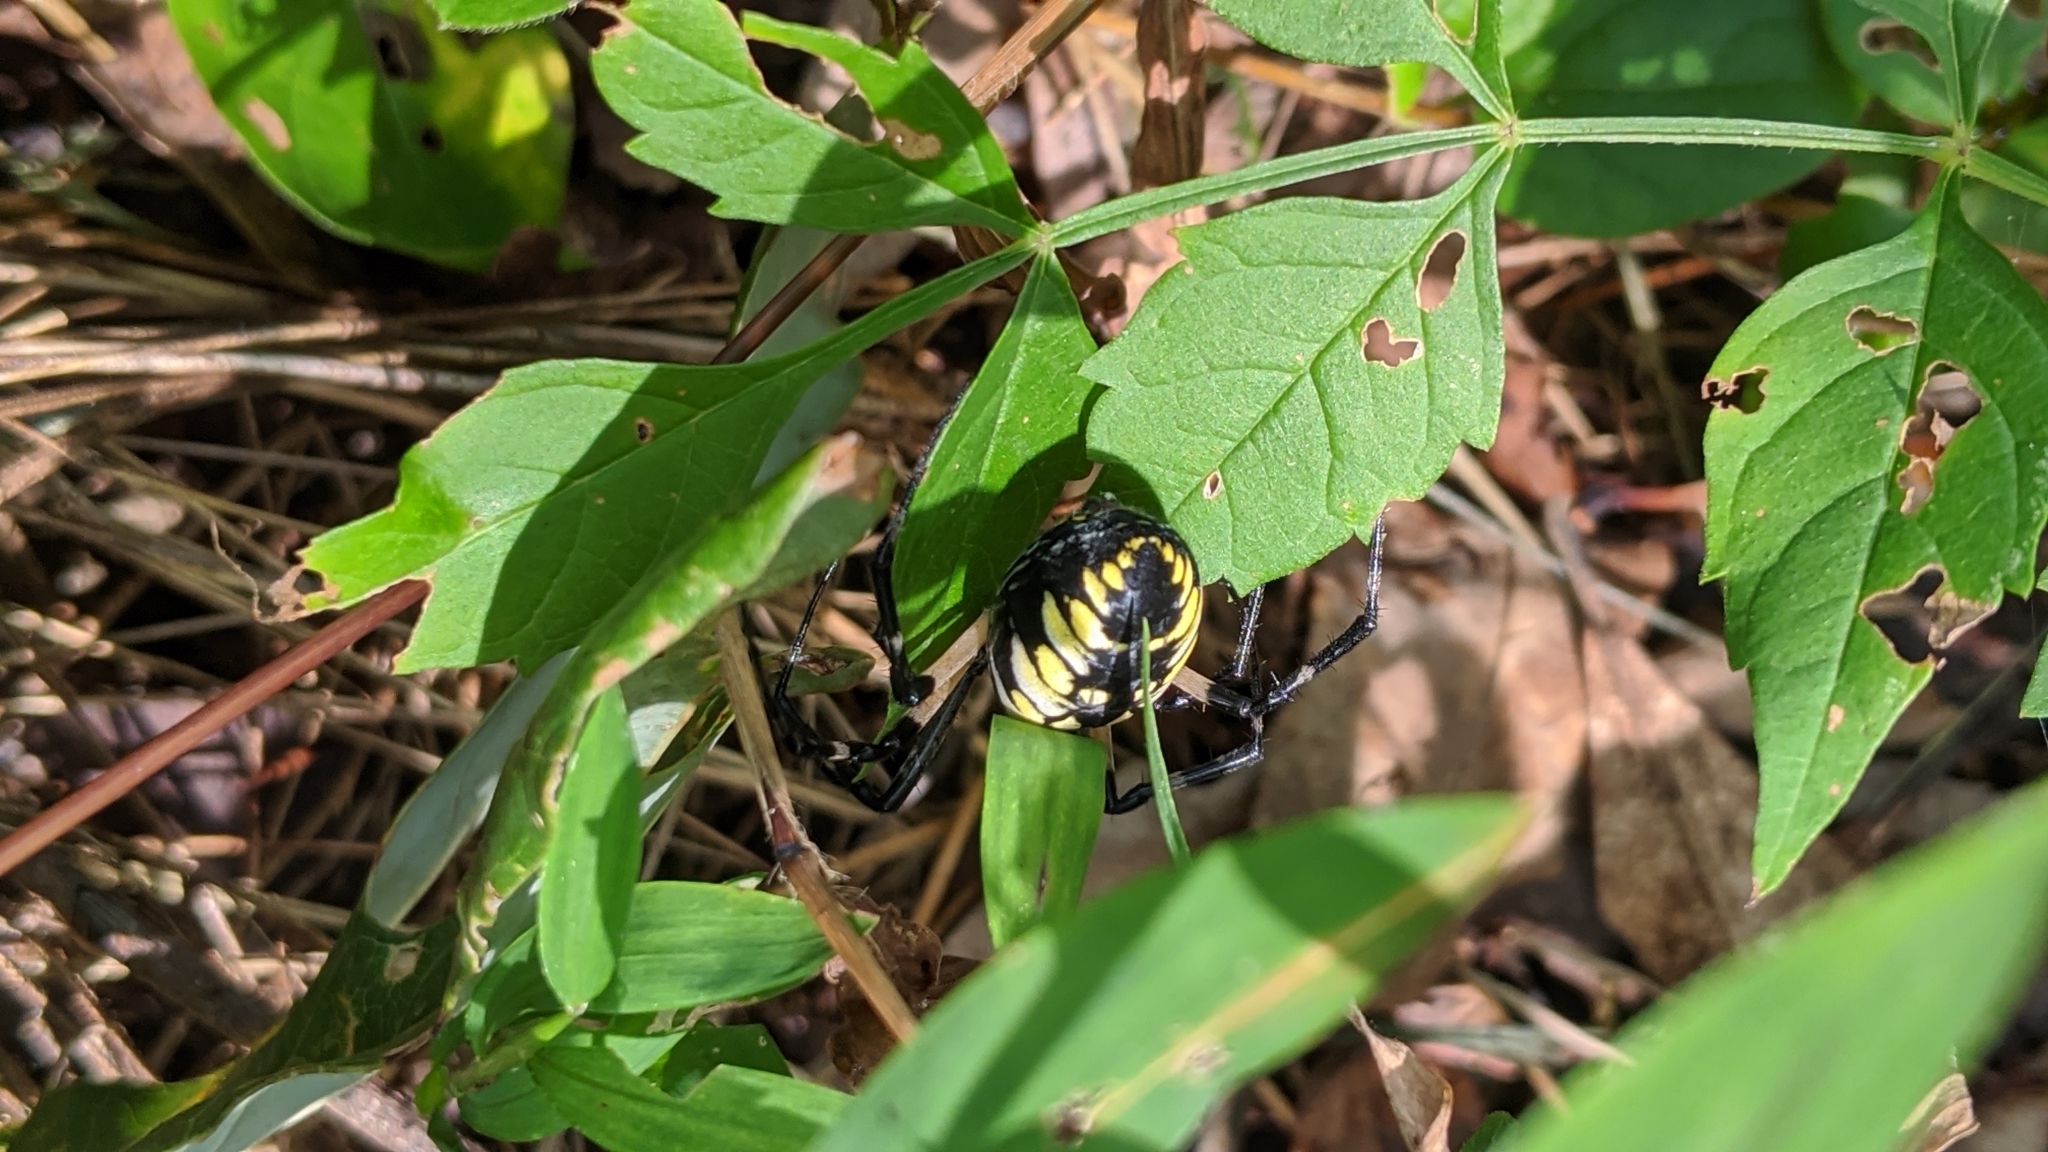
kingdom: Animalia
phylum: Arthropoda
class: Arachnida
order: Araneae
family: Araneidae
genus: Argiope
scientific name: Argiope aurantia
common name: Orb weavers
